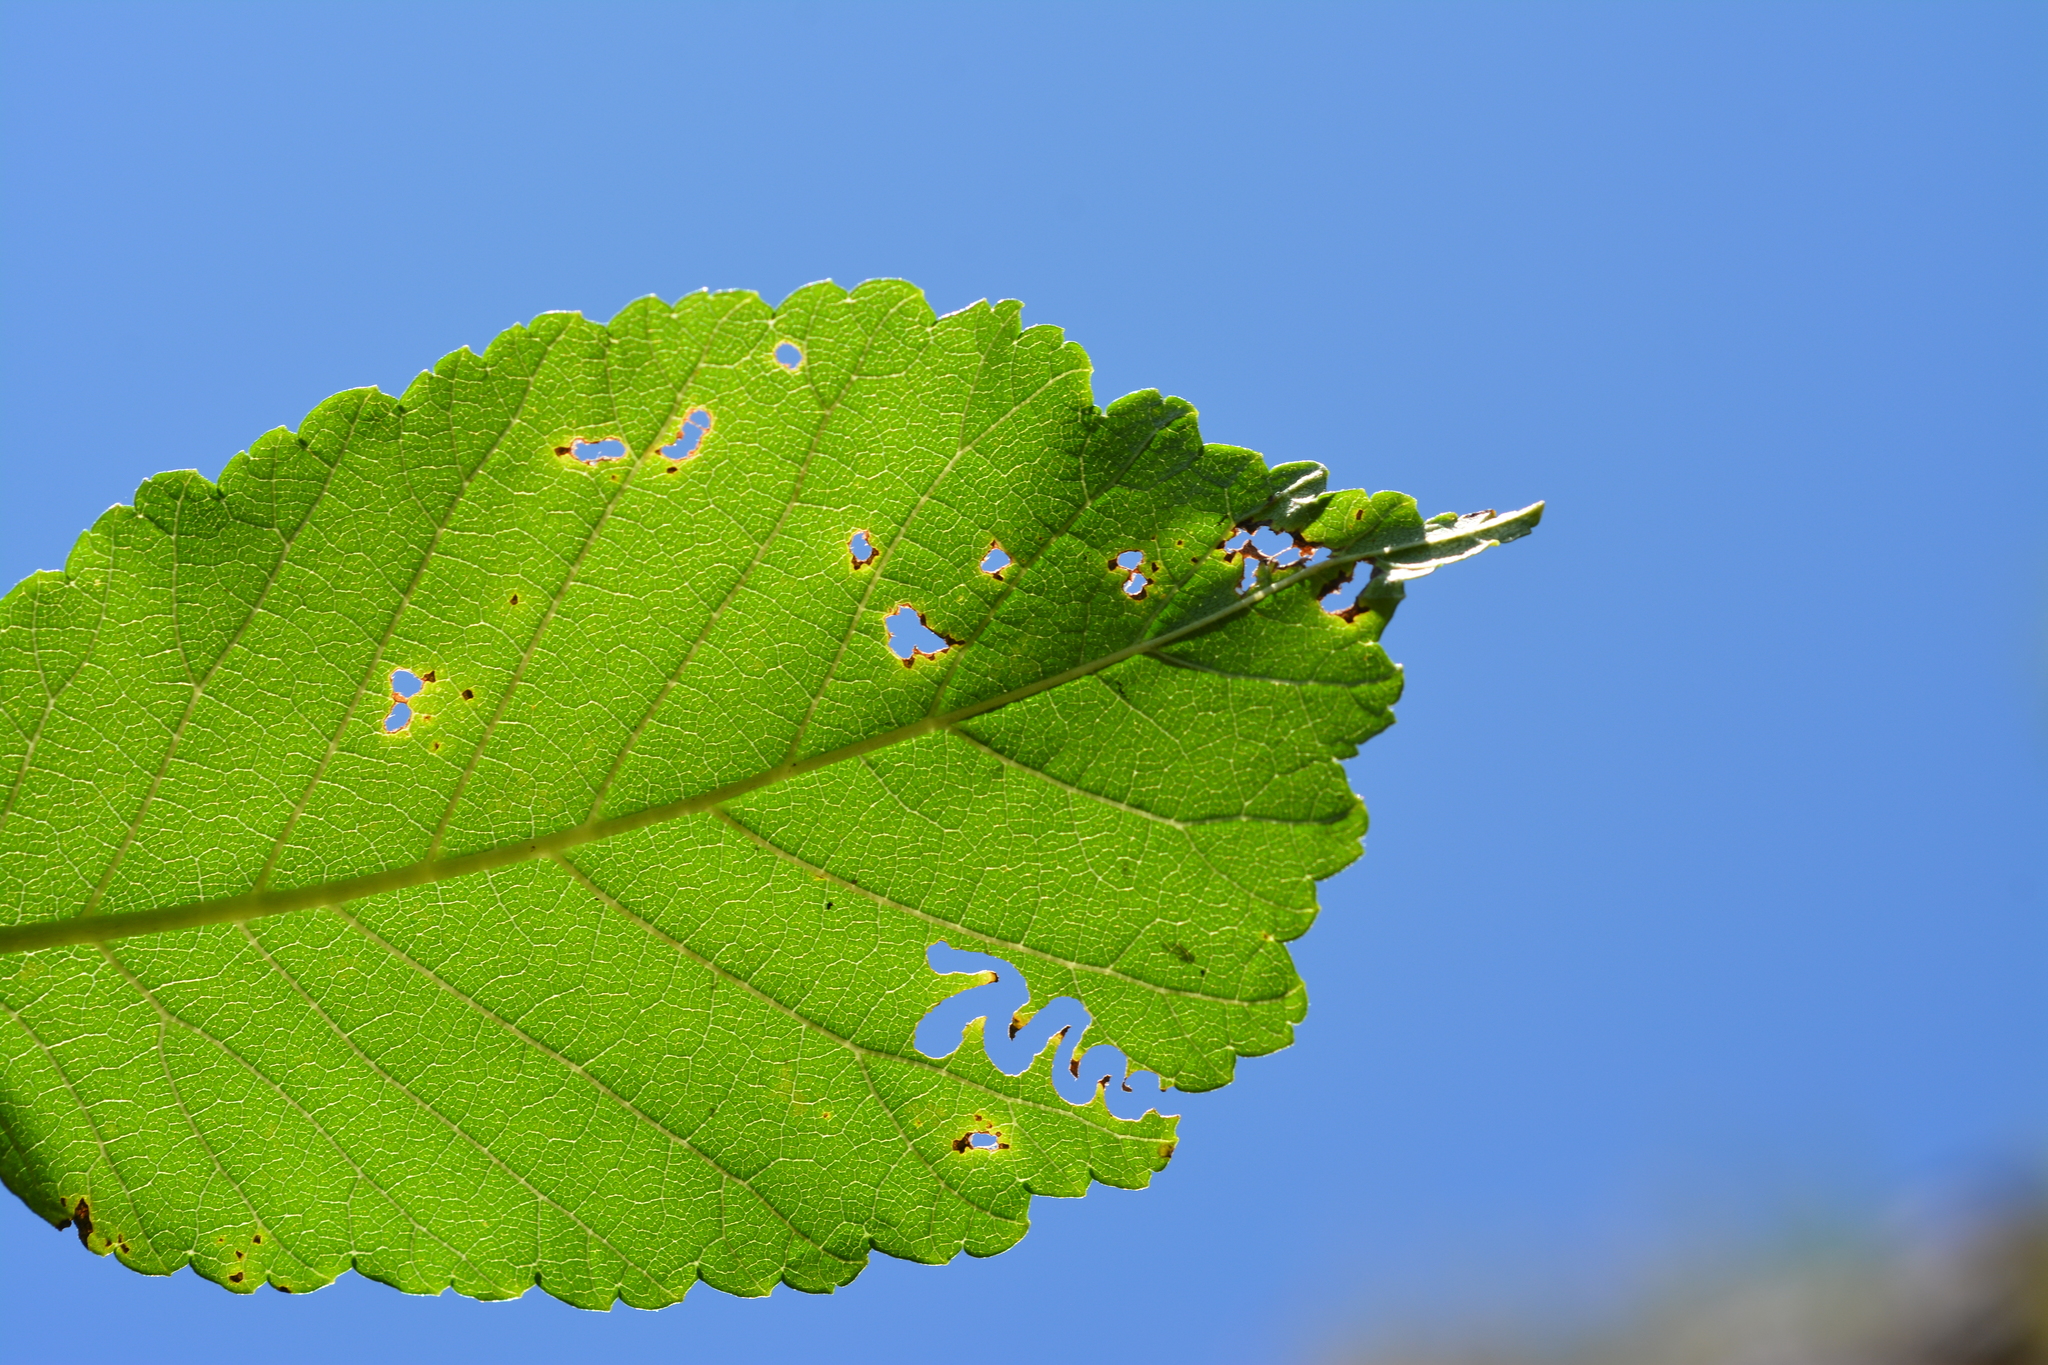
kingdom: Animalia
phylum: Arthropoda
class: Insecta
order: Hymenoptera
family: Argidae
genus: Aproceros
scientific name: Aproceros leucopoda
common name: Zig-zag elm sawfly
